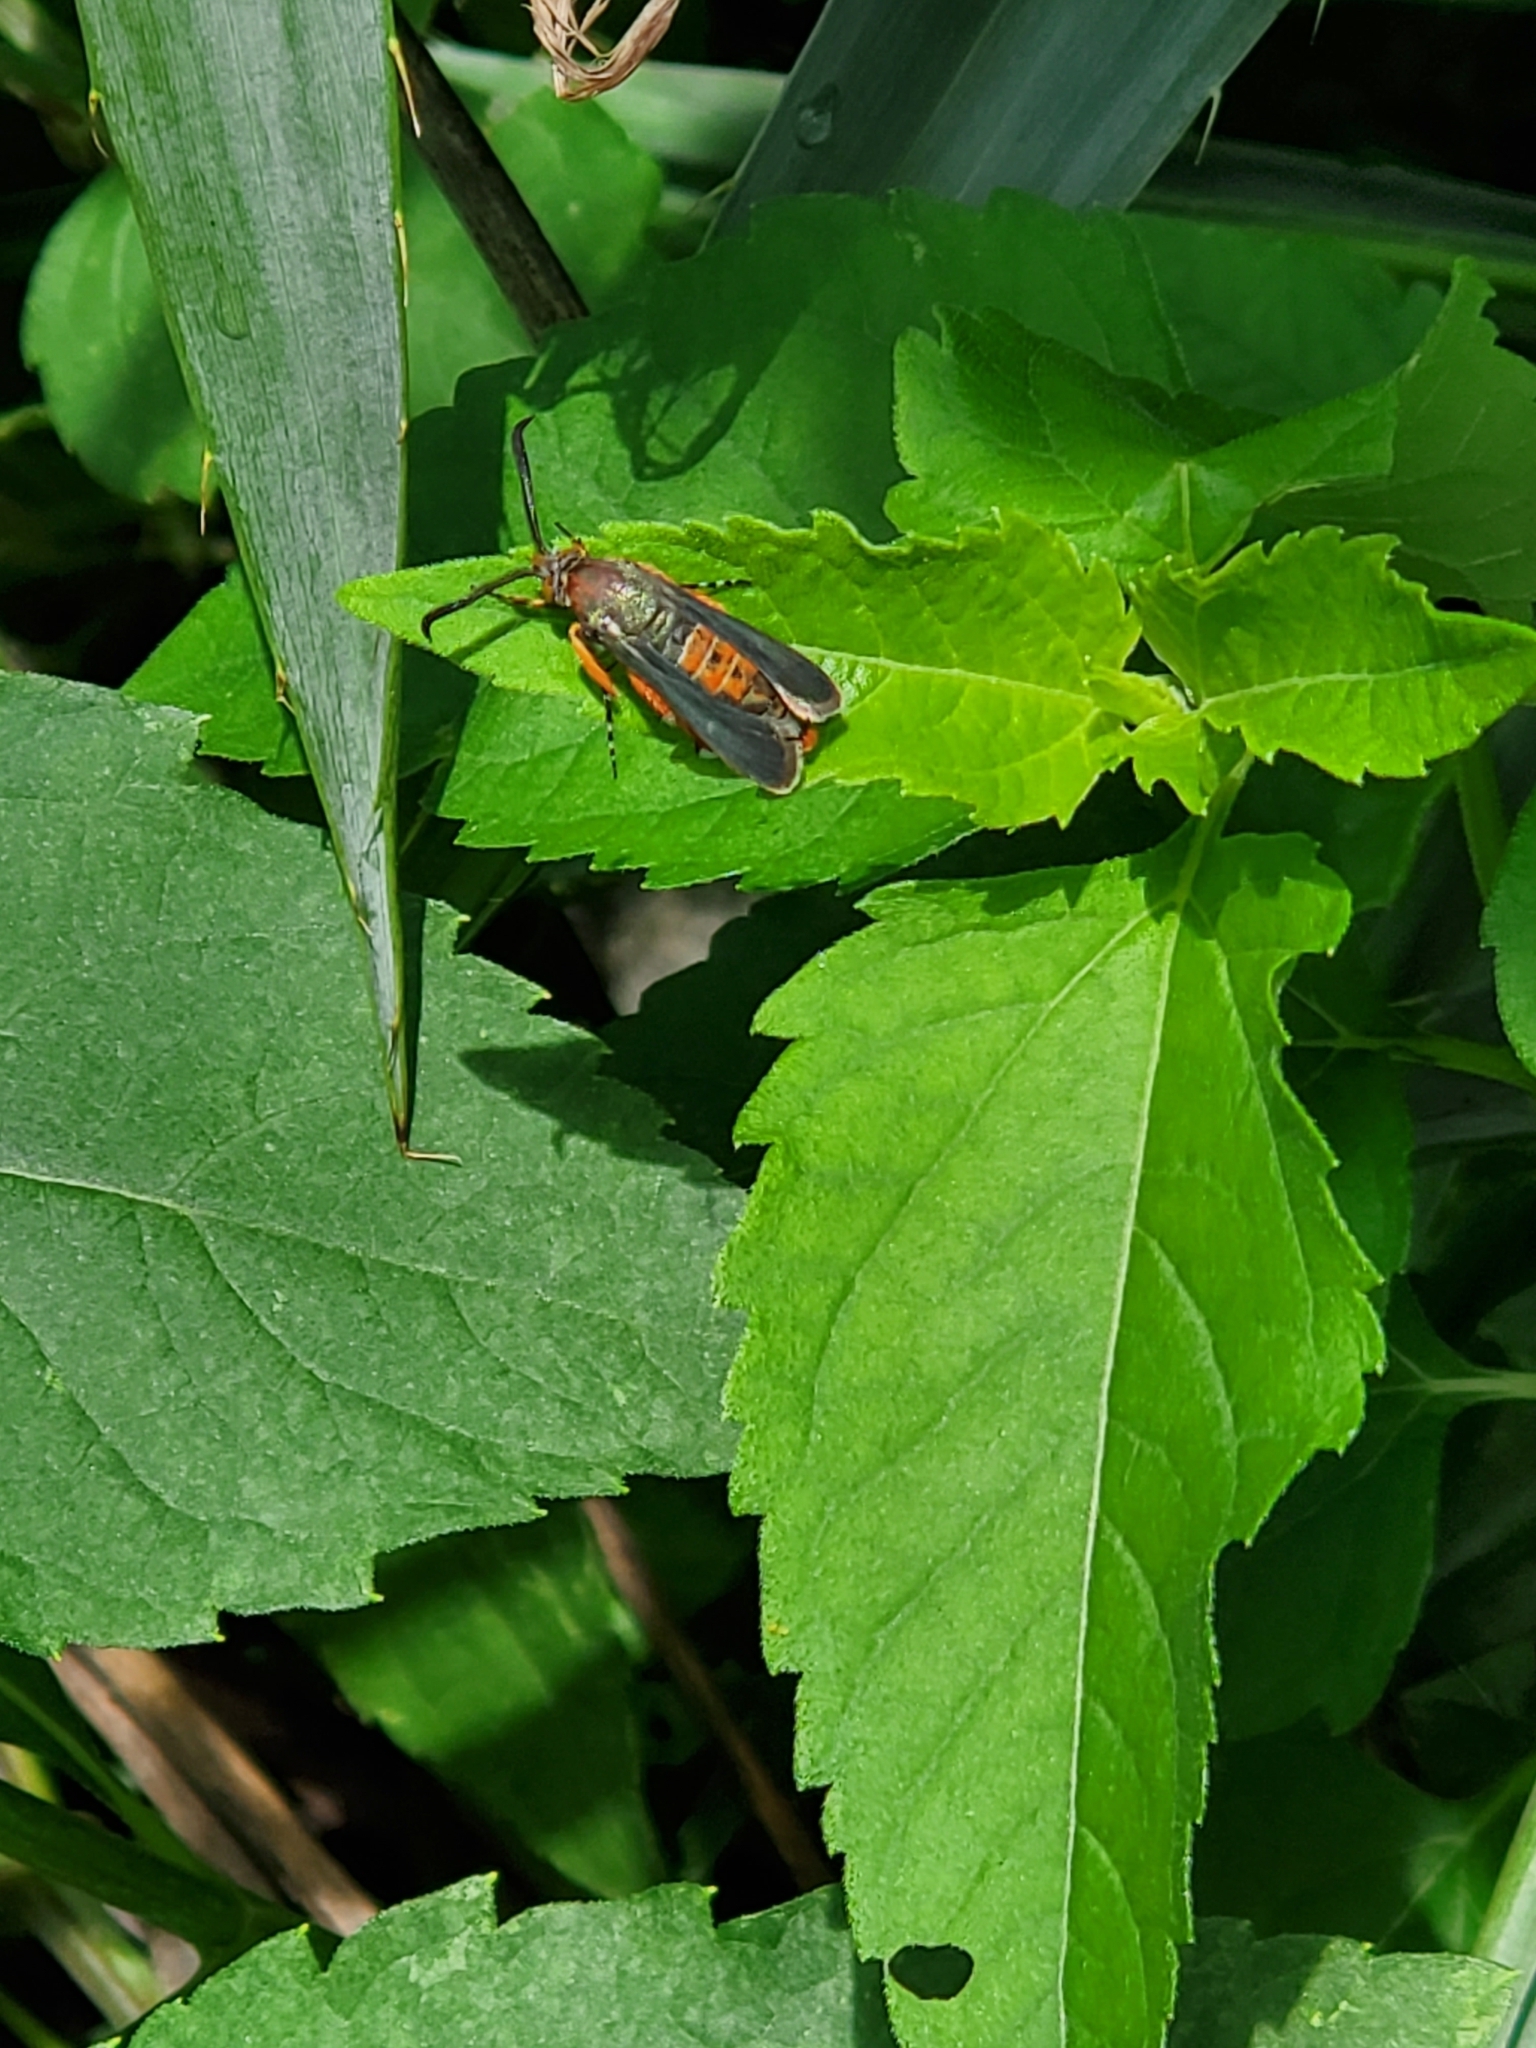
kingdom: Animalia
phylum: Arthropoda
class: Insecta
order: Lepidoptera
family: Sesiidae
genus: Eichlinia
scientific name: Eichlinia cucurbitae
